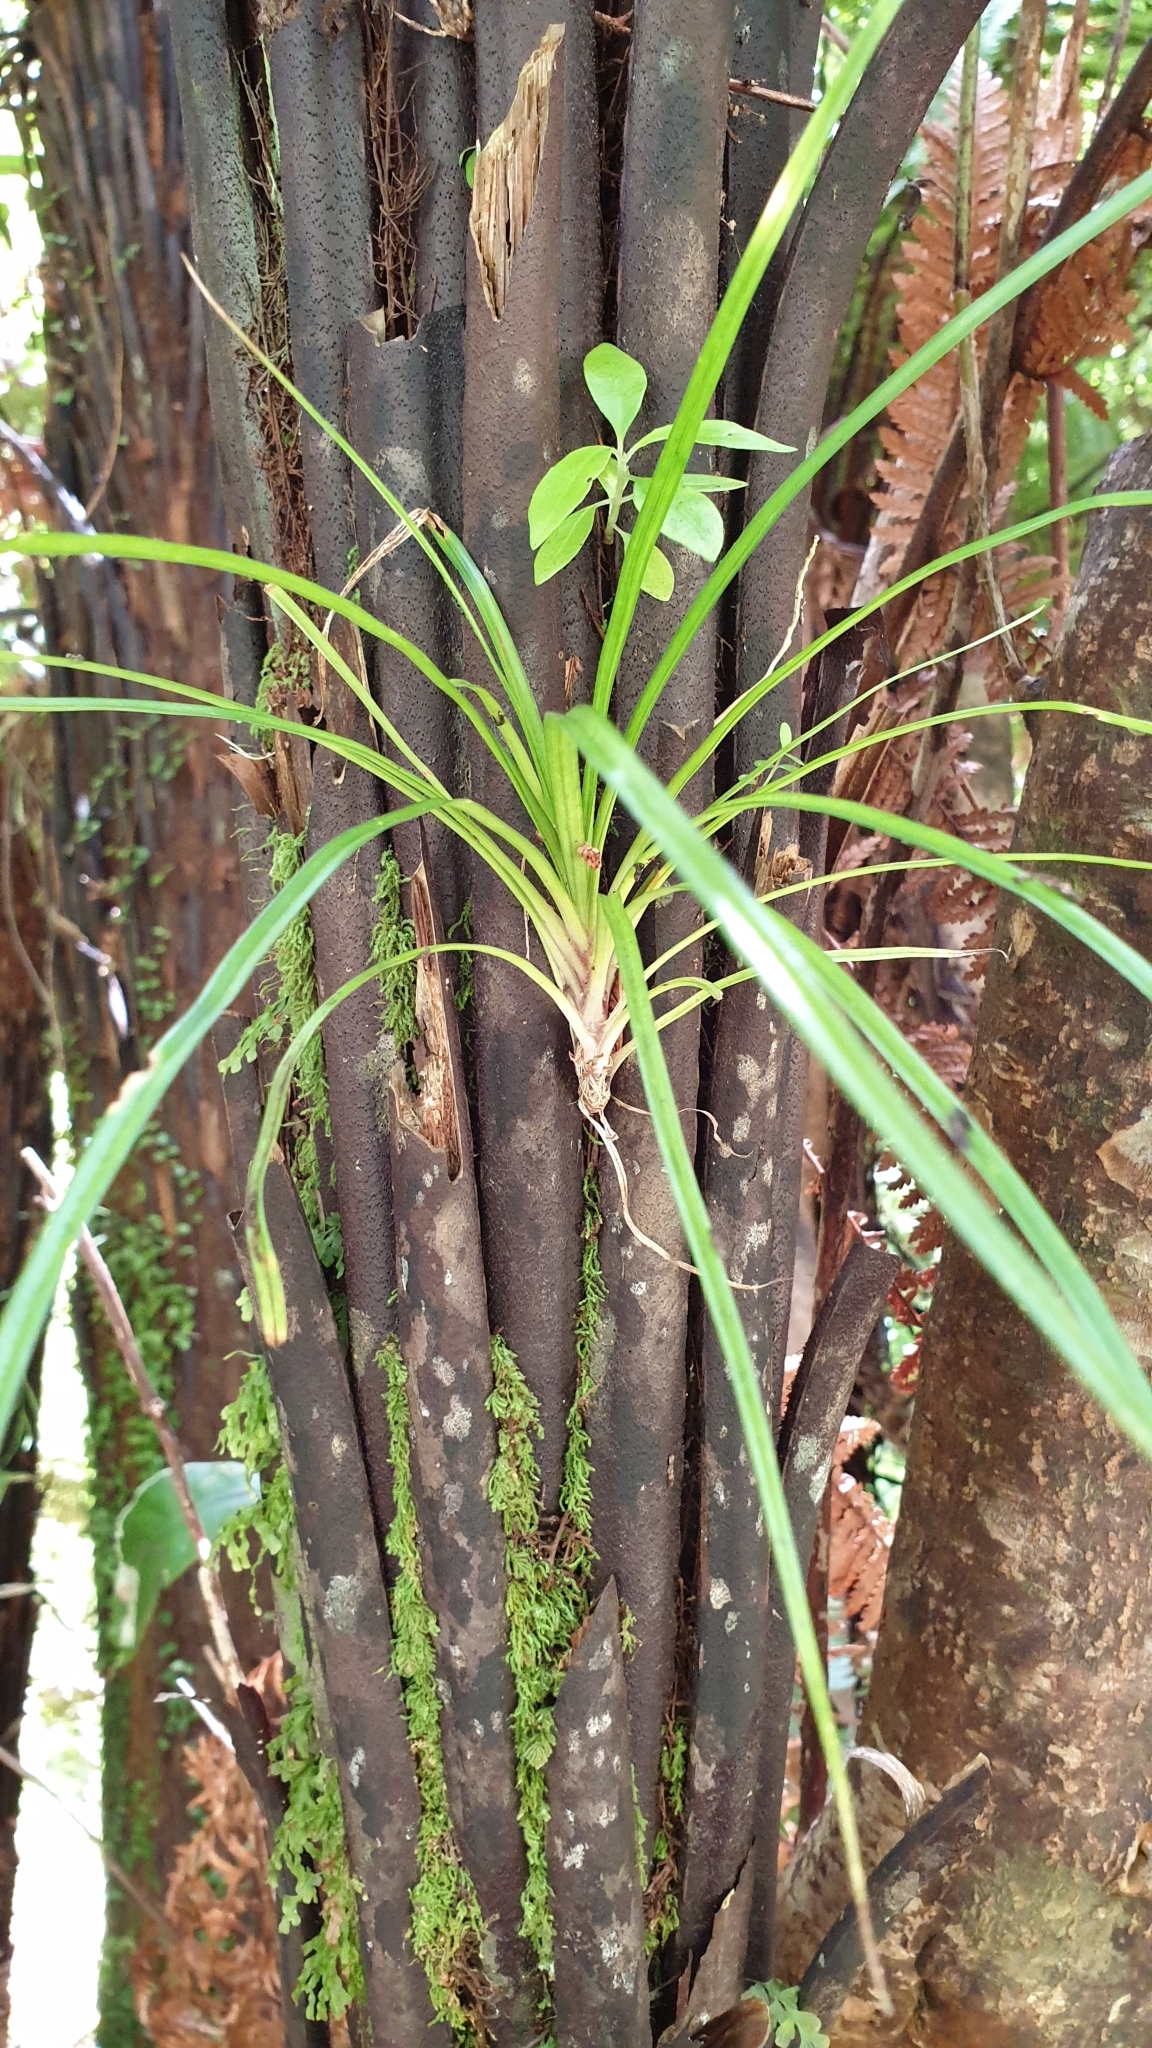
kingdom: Plantae
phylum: Tracheophyta
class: Liliopsida
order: Asparagales
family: Asteliaceae
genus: Astelia
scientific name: Astelia solandri
